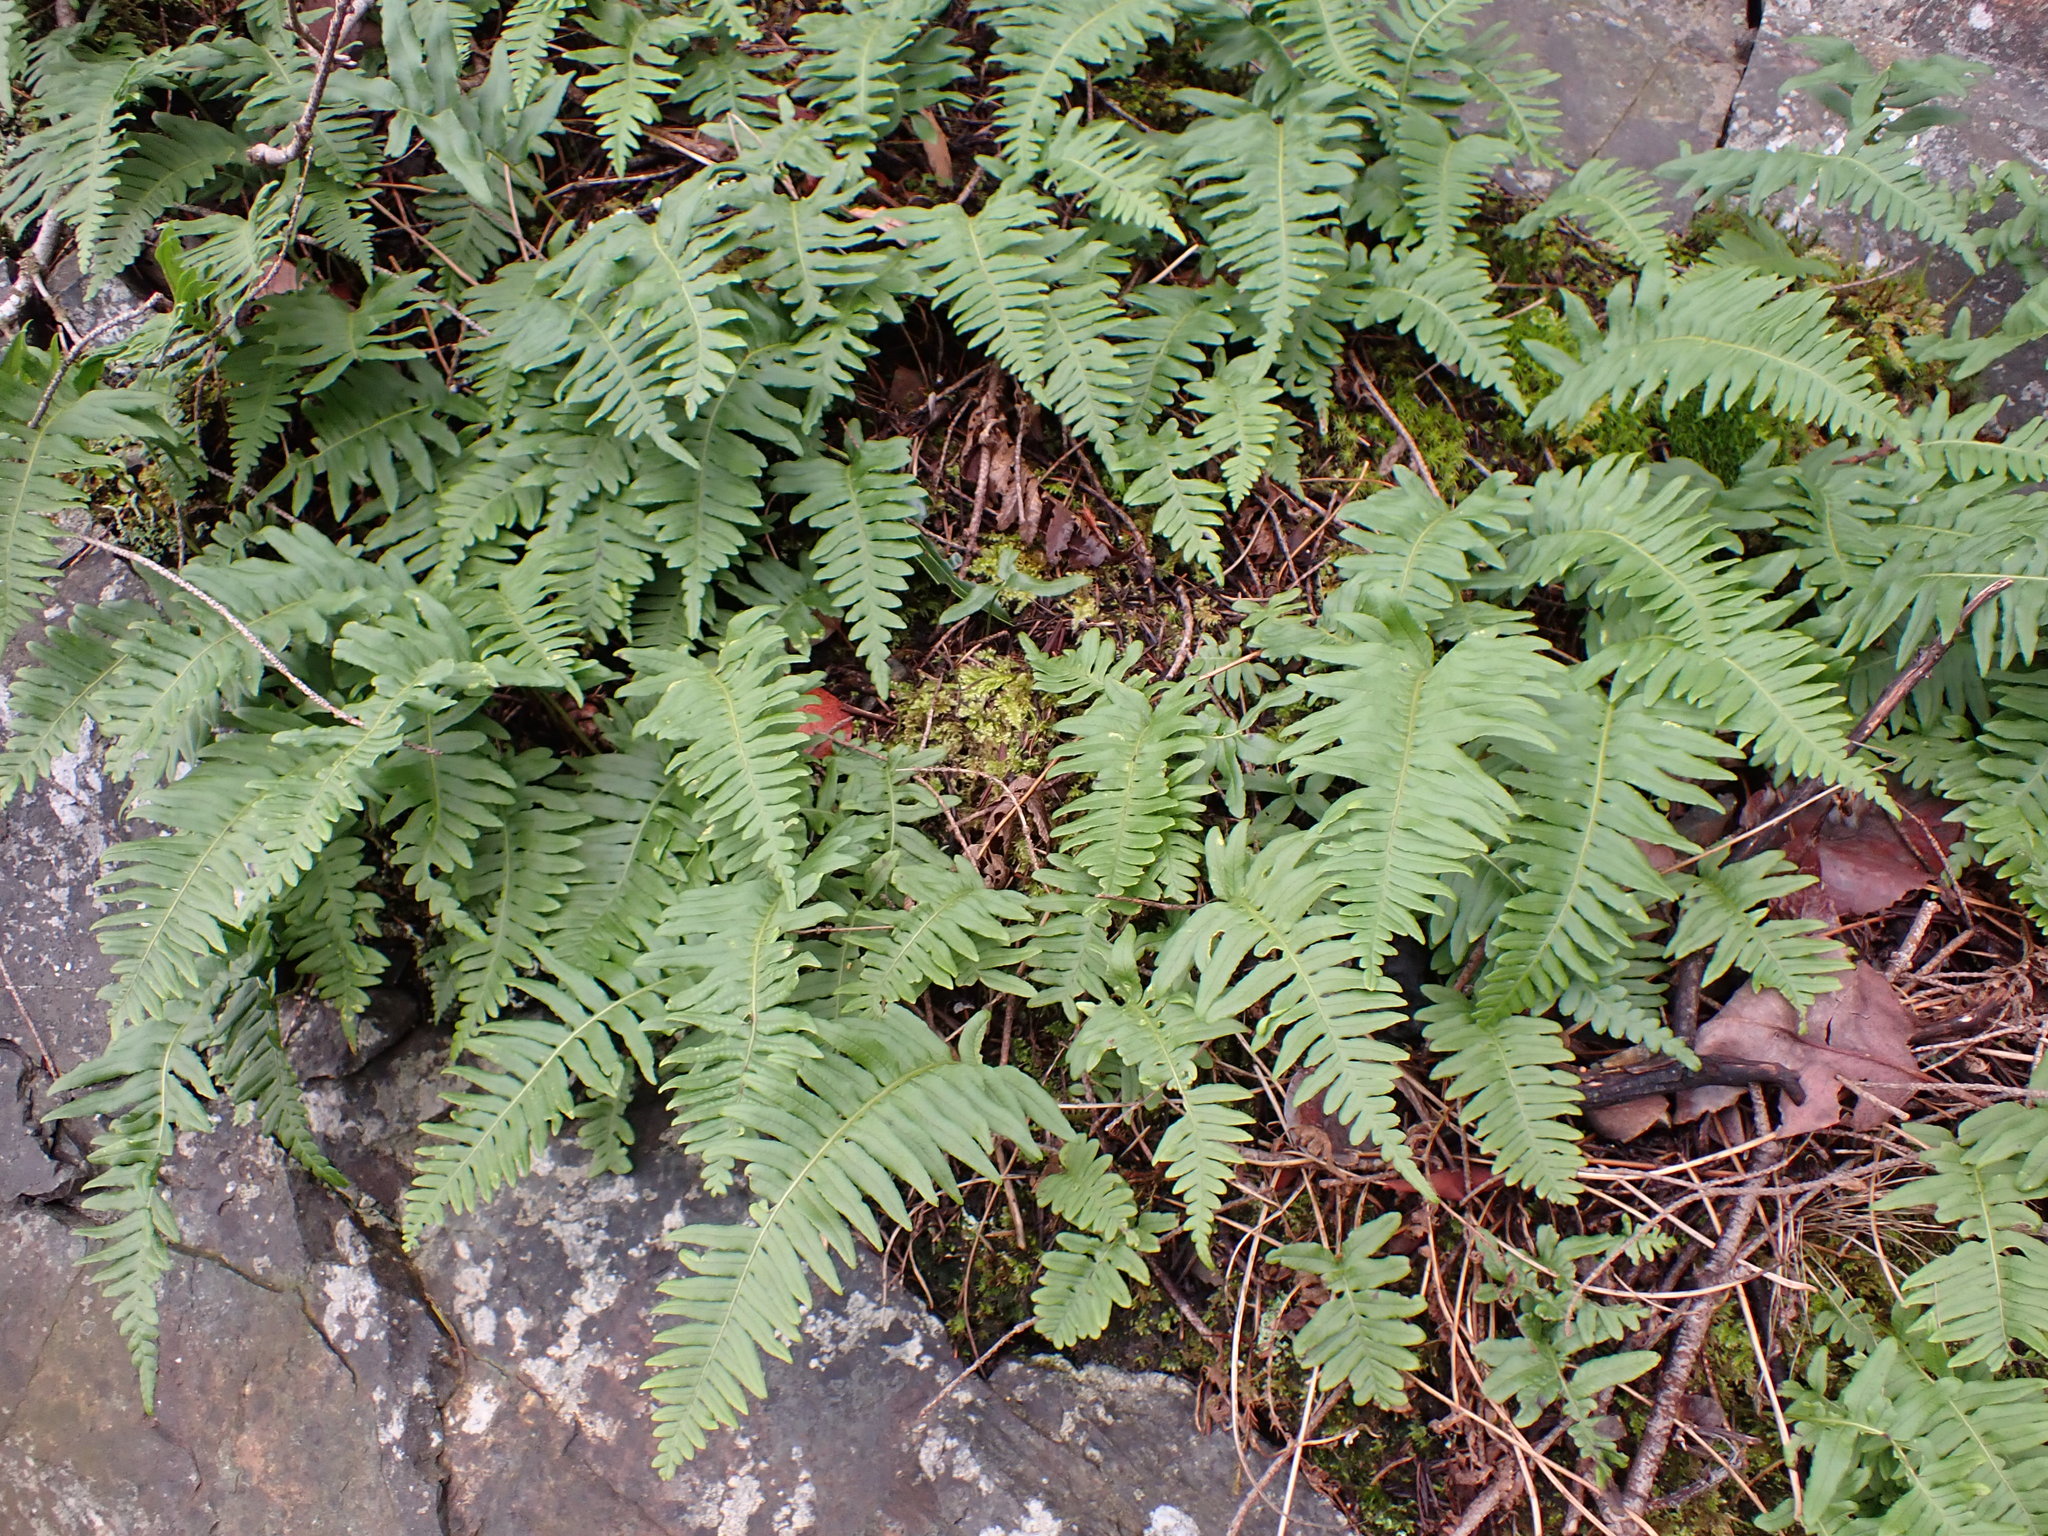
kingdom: Plantae
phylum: Tracheophyta
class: Polypodiopsida
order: Polypodiales
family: Polypodiaceae
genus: Polypodium
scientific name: Polypodium glycyrrhiza
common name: Licorice fern
